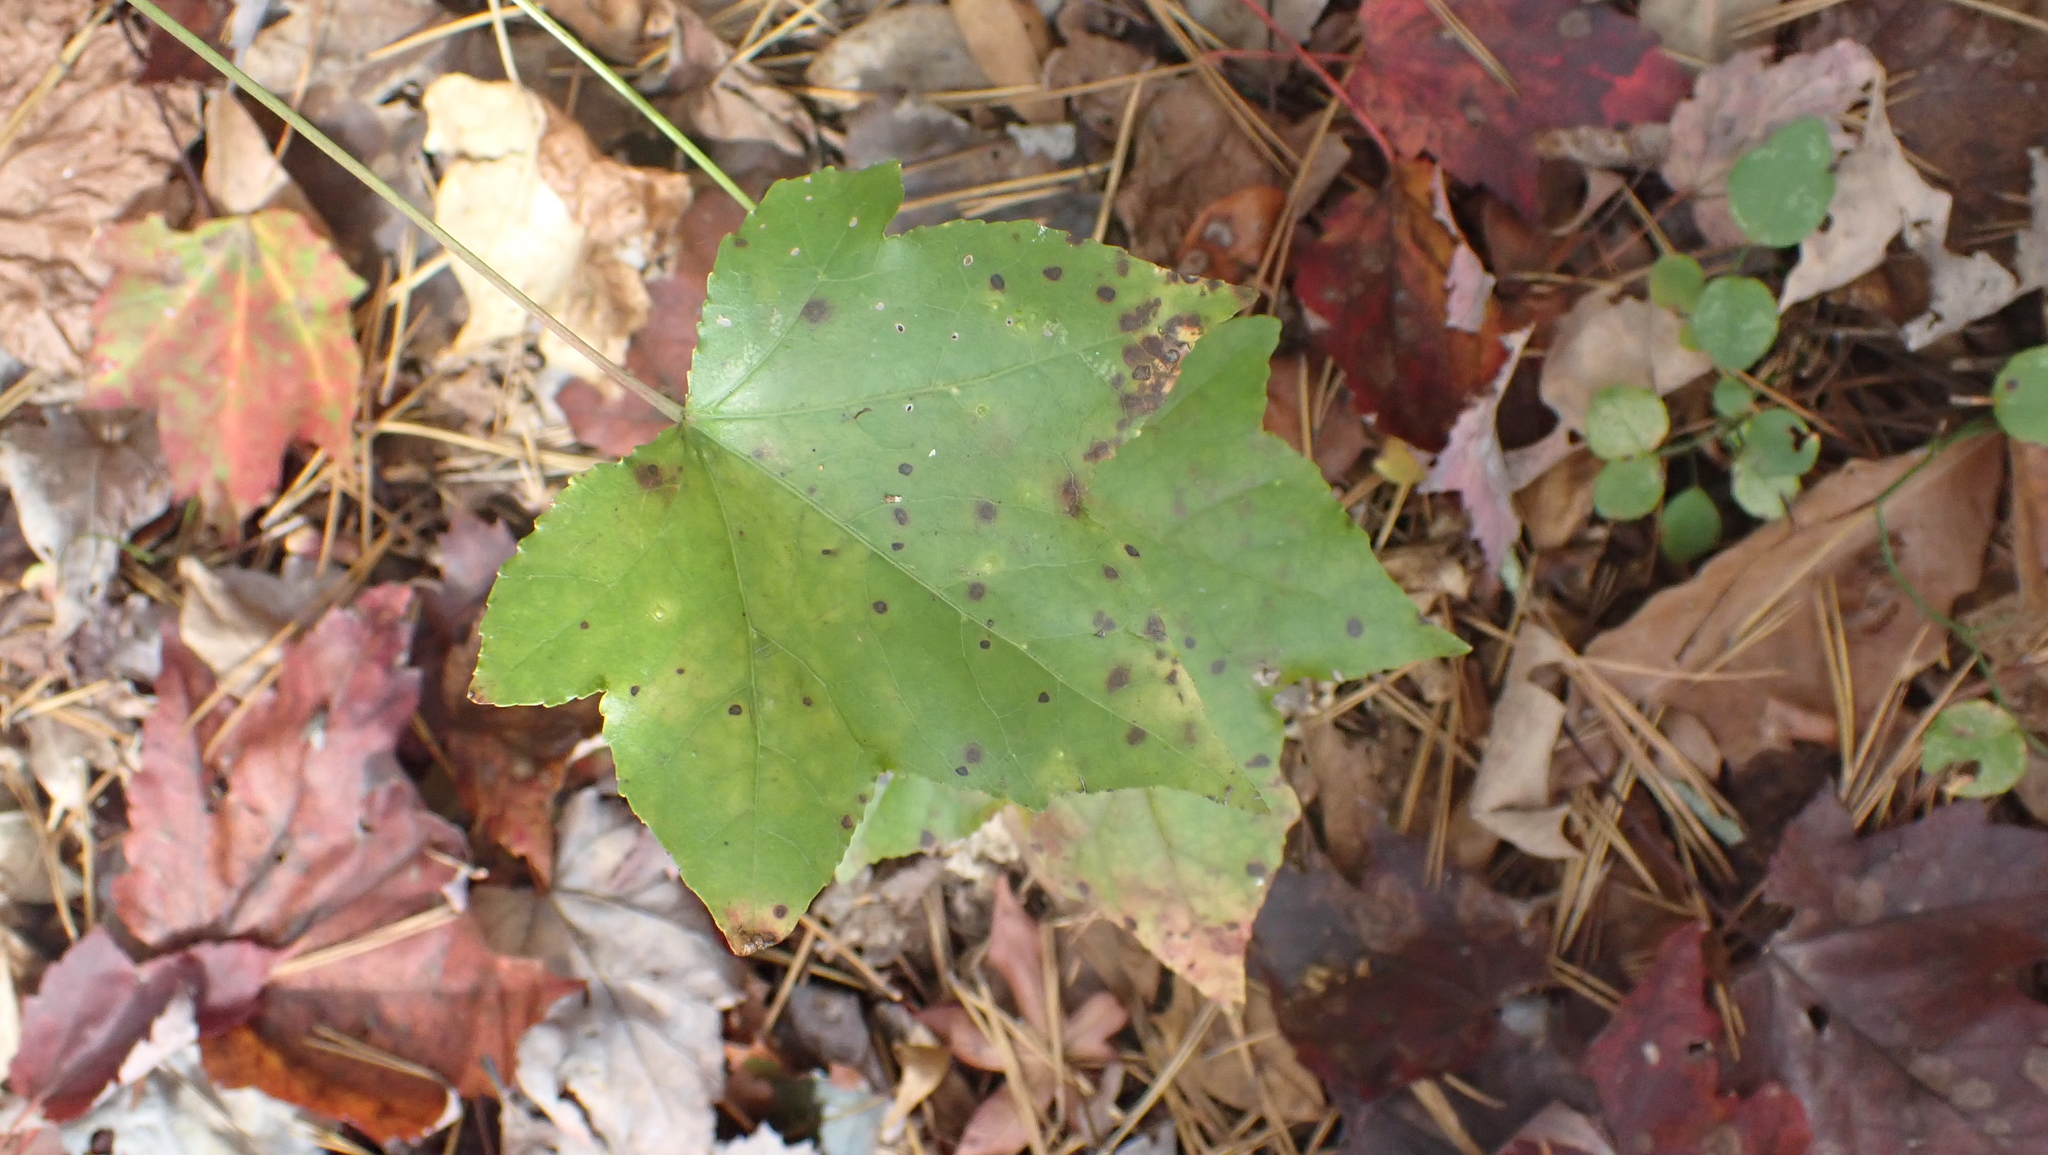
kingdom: Plantae
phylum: Tracheophyta
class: Magnoliopsida
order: Saxifragales
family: Altingiaceae
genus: Liquidambar
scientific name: Liquidambar styraciflua
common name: Sweet gum
